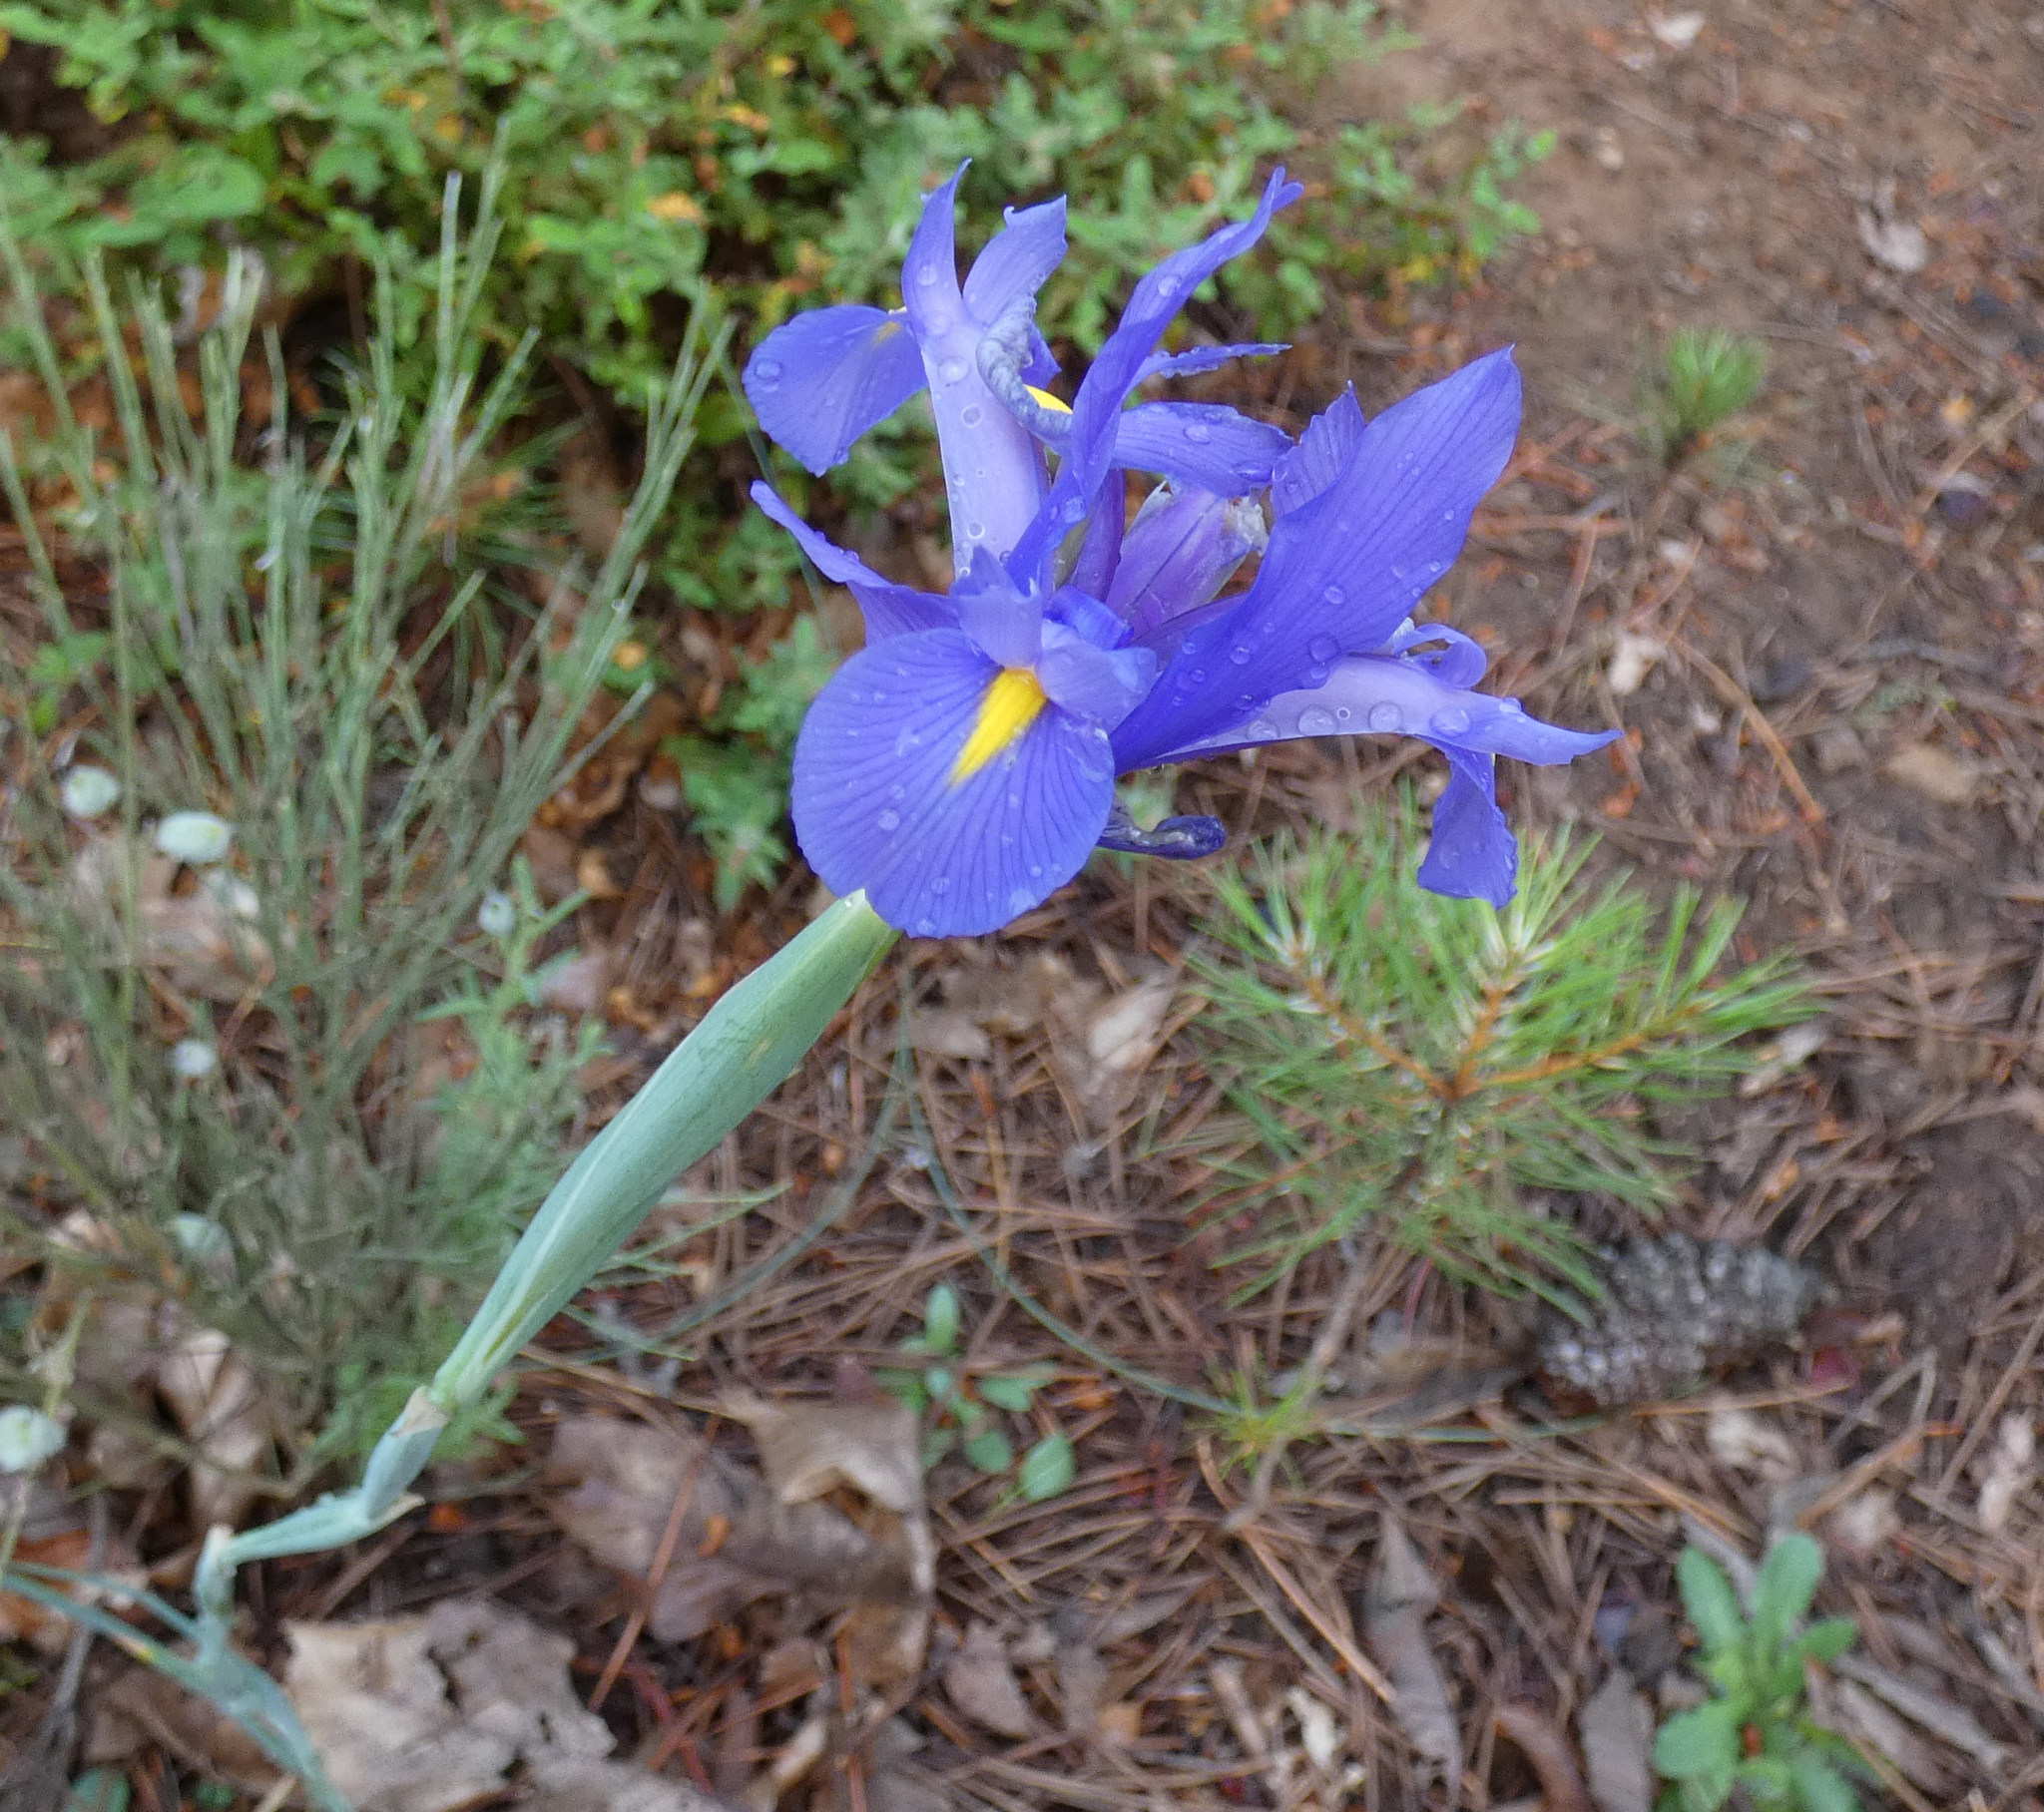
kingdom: Plantae
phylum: Tracheophyta
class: Liliopsida
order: Asparagales
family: Iridaceae
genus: Iris
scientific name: Iris xiphium
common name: Spanish iris
